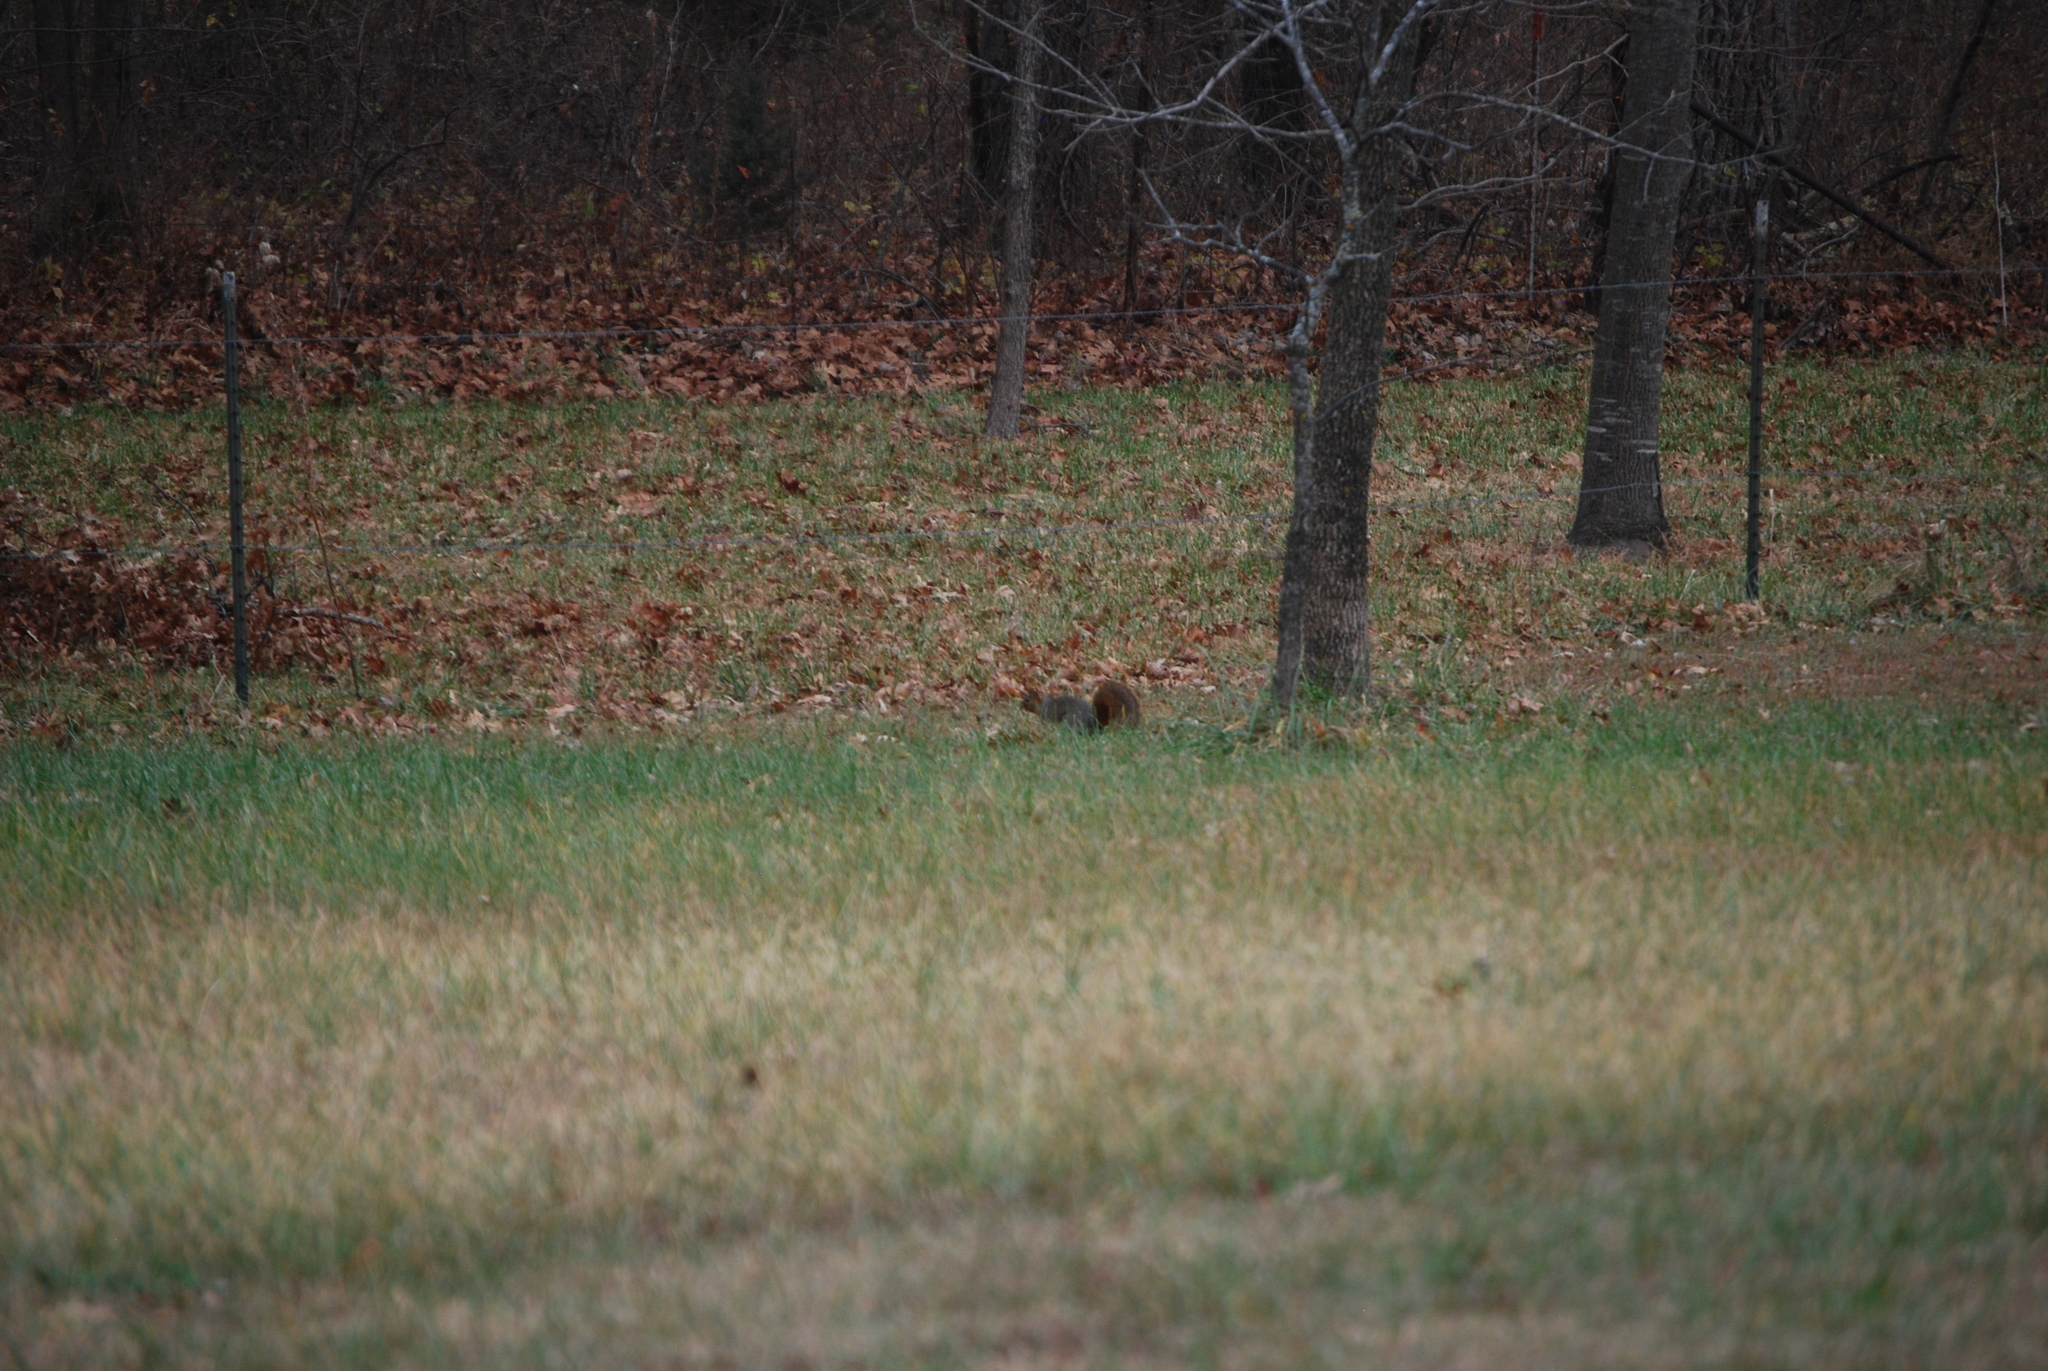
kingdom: Animalia
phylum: Chordata
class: Mammalia
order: Rodentia
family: Sciuridae
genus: Sciurus
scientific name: Sciurus niger
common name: Fox squirrel
